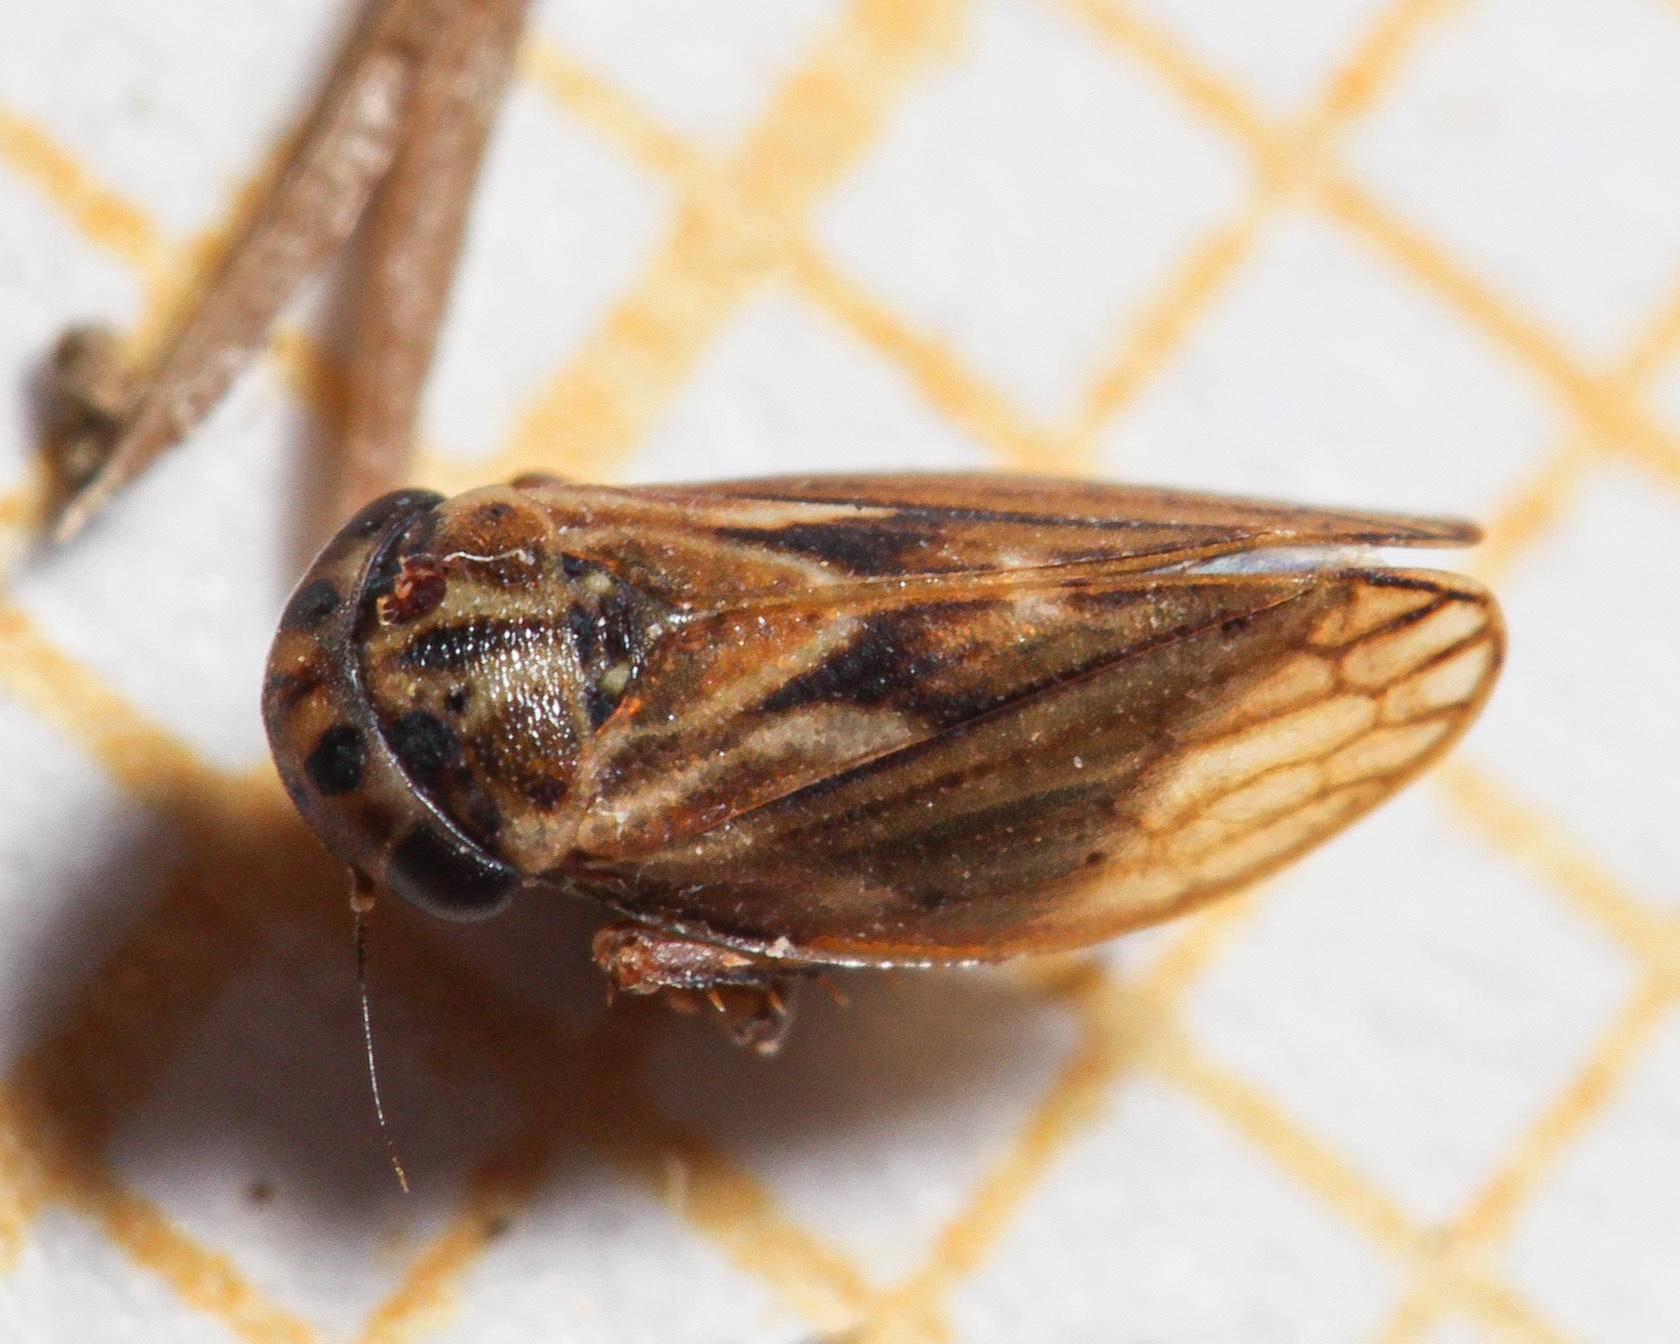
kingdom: Animalia
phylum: Arthropoda
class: Insecta
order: Hemiptera
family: Cicadellidae
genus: Anaceratagallia
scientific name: Anaceratagallia
